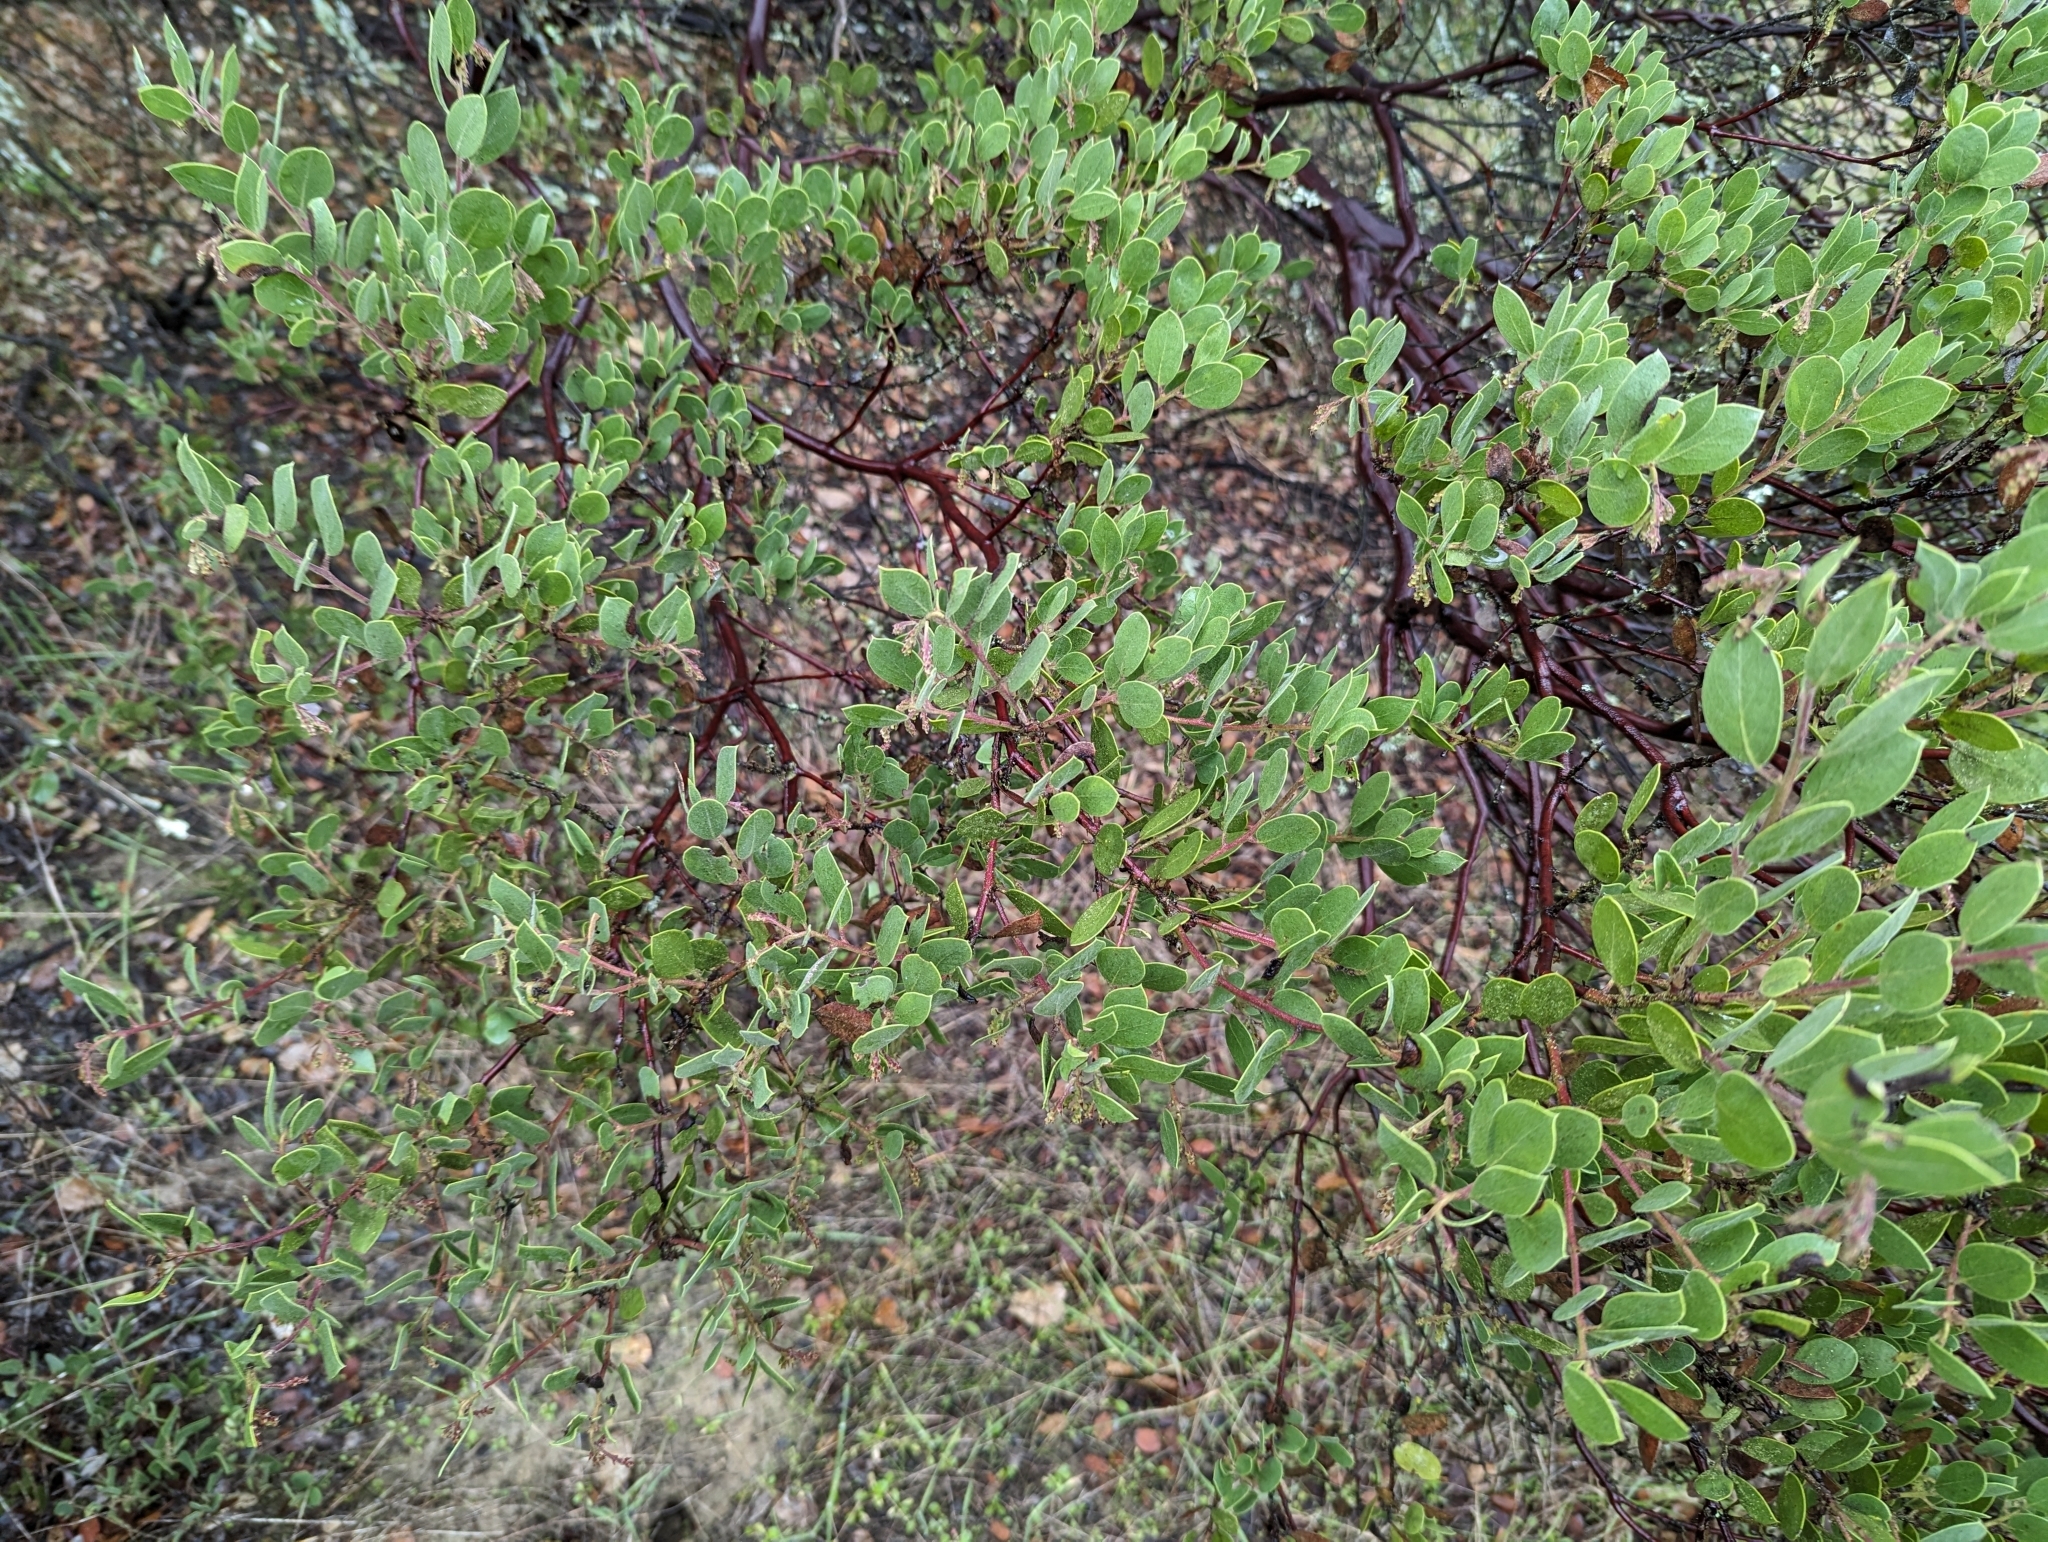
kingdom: Plantae
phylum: Tracheophyta
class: Magnoliopsida
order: Ericales
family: Ericaceae
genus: Arctostaphylos
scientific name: Arctostaphylos manzanita
